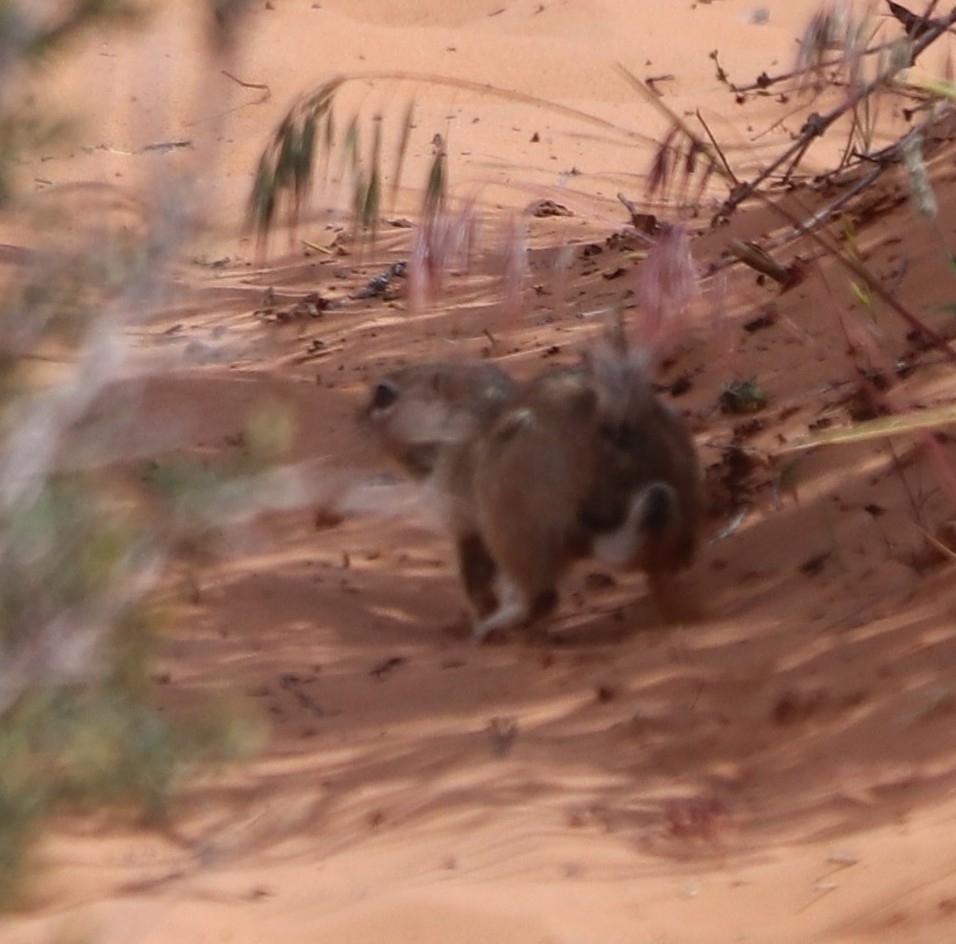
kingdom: Animalia
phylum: Chordata
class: Mammalia
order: Rodentia
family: Sciuridae
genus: Ammospermophilus
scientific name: Ammospermophilus leucurus
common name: White-tailed antelope squirrel
